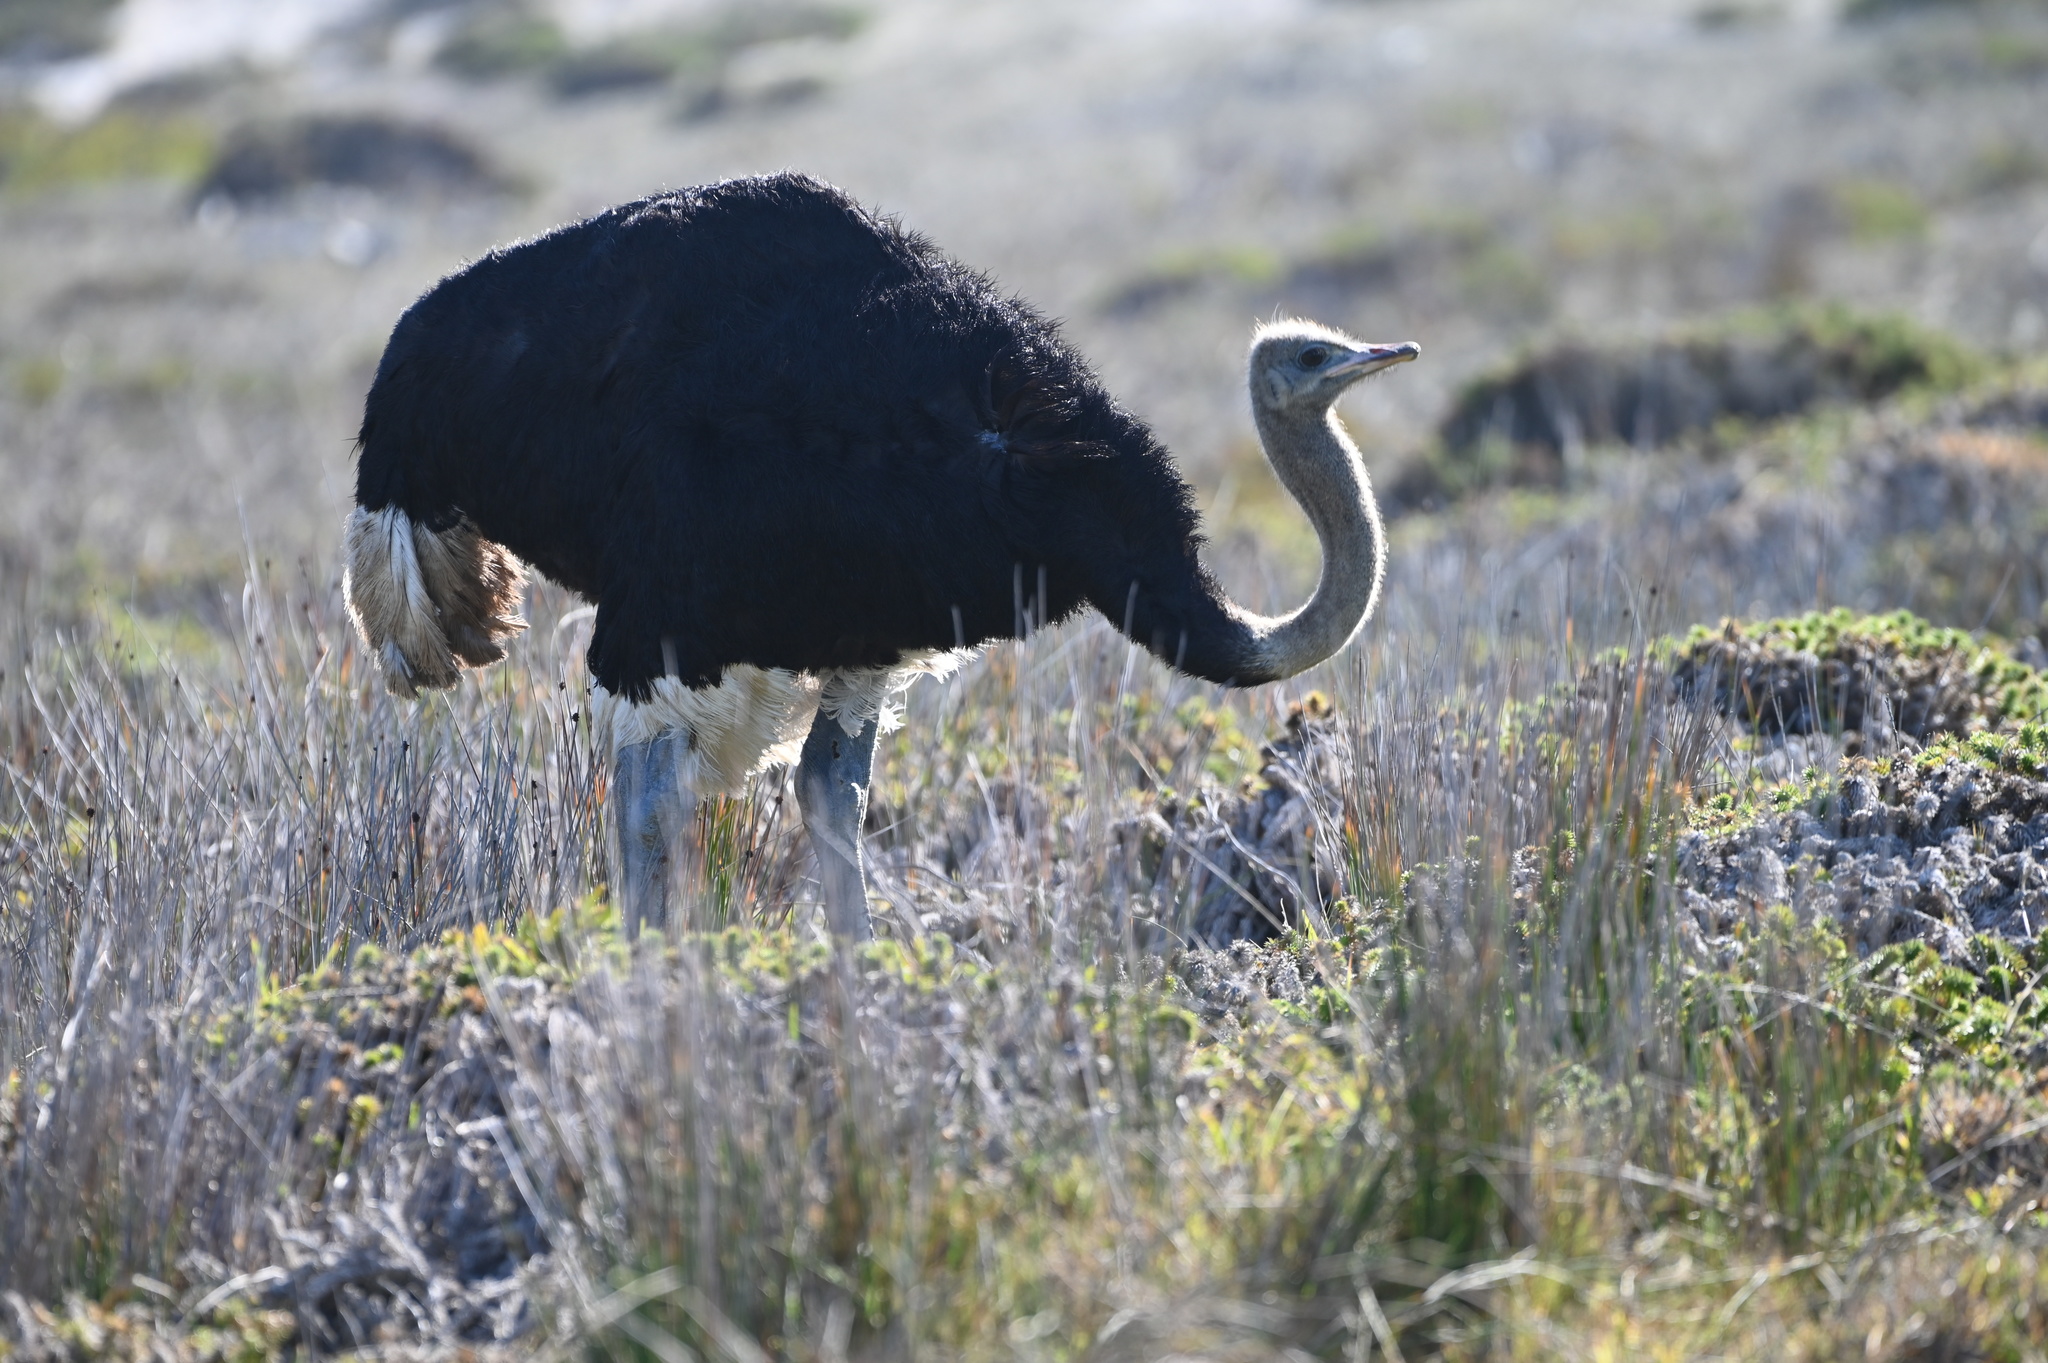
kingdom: Animalia
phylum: Chordata
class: Aves
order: Struthioniformes
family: Struthionidae
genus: Struthio
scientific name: Struthio camelus
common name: Common ostrich
